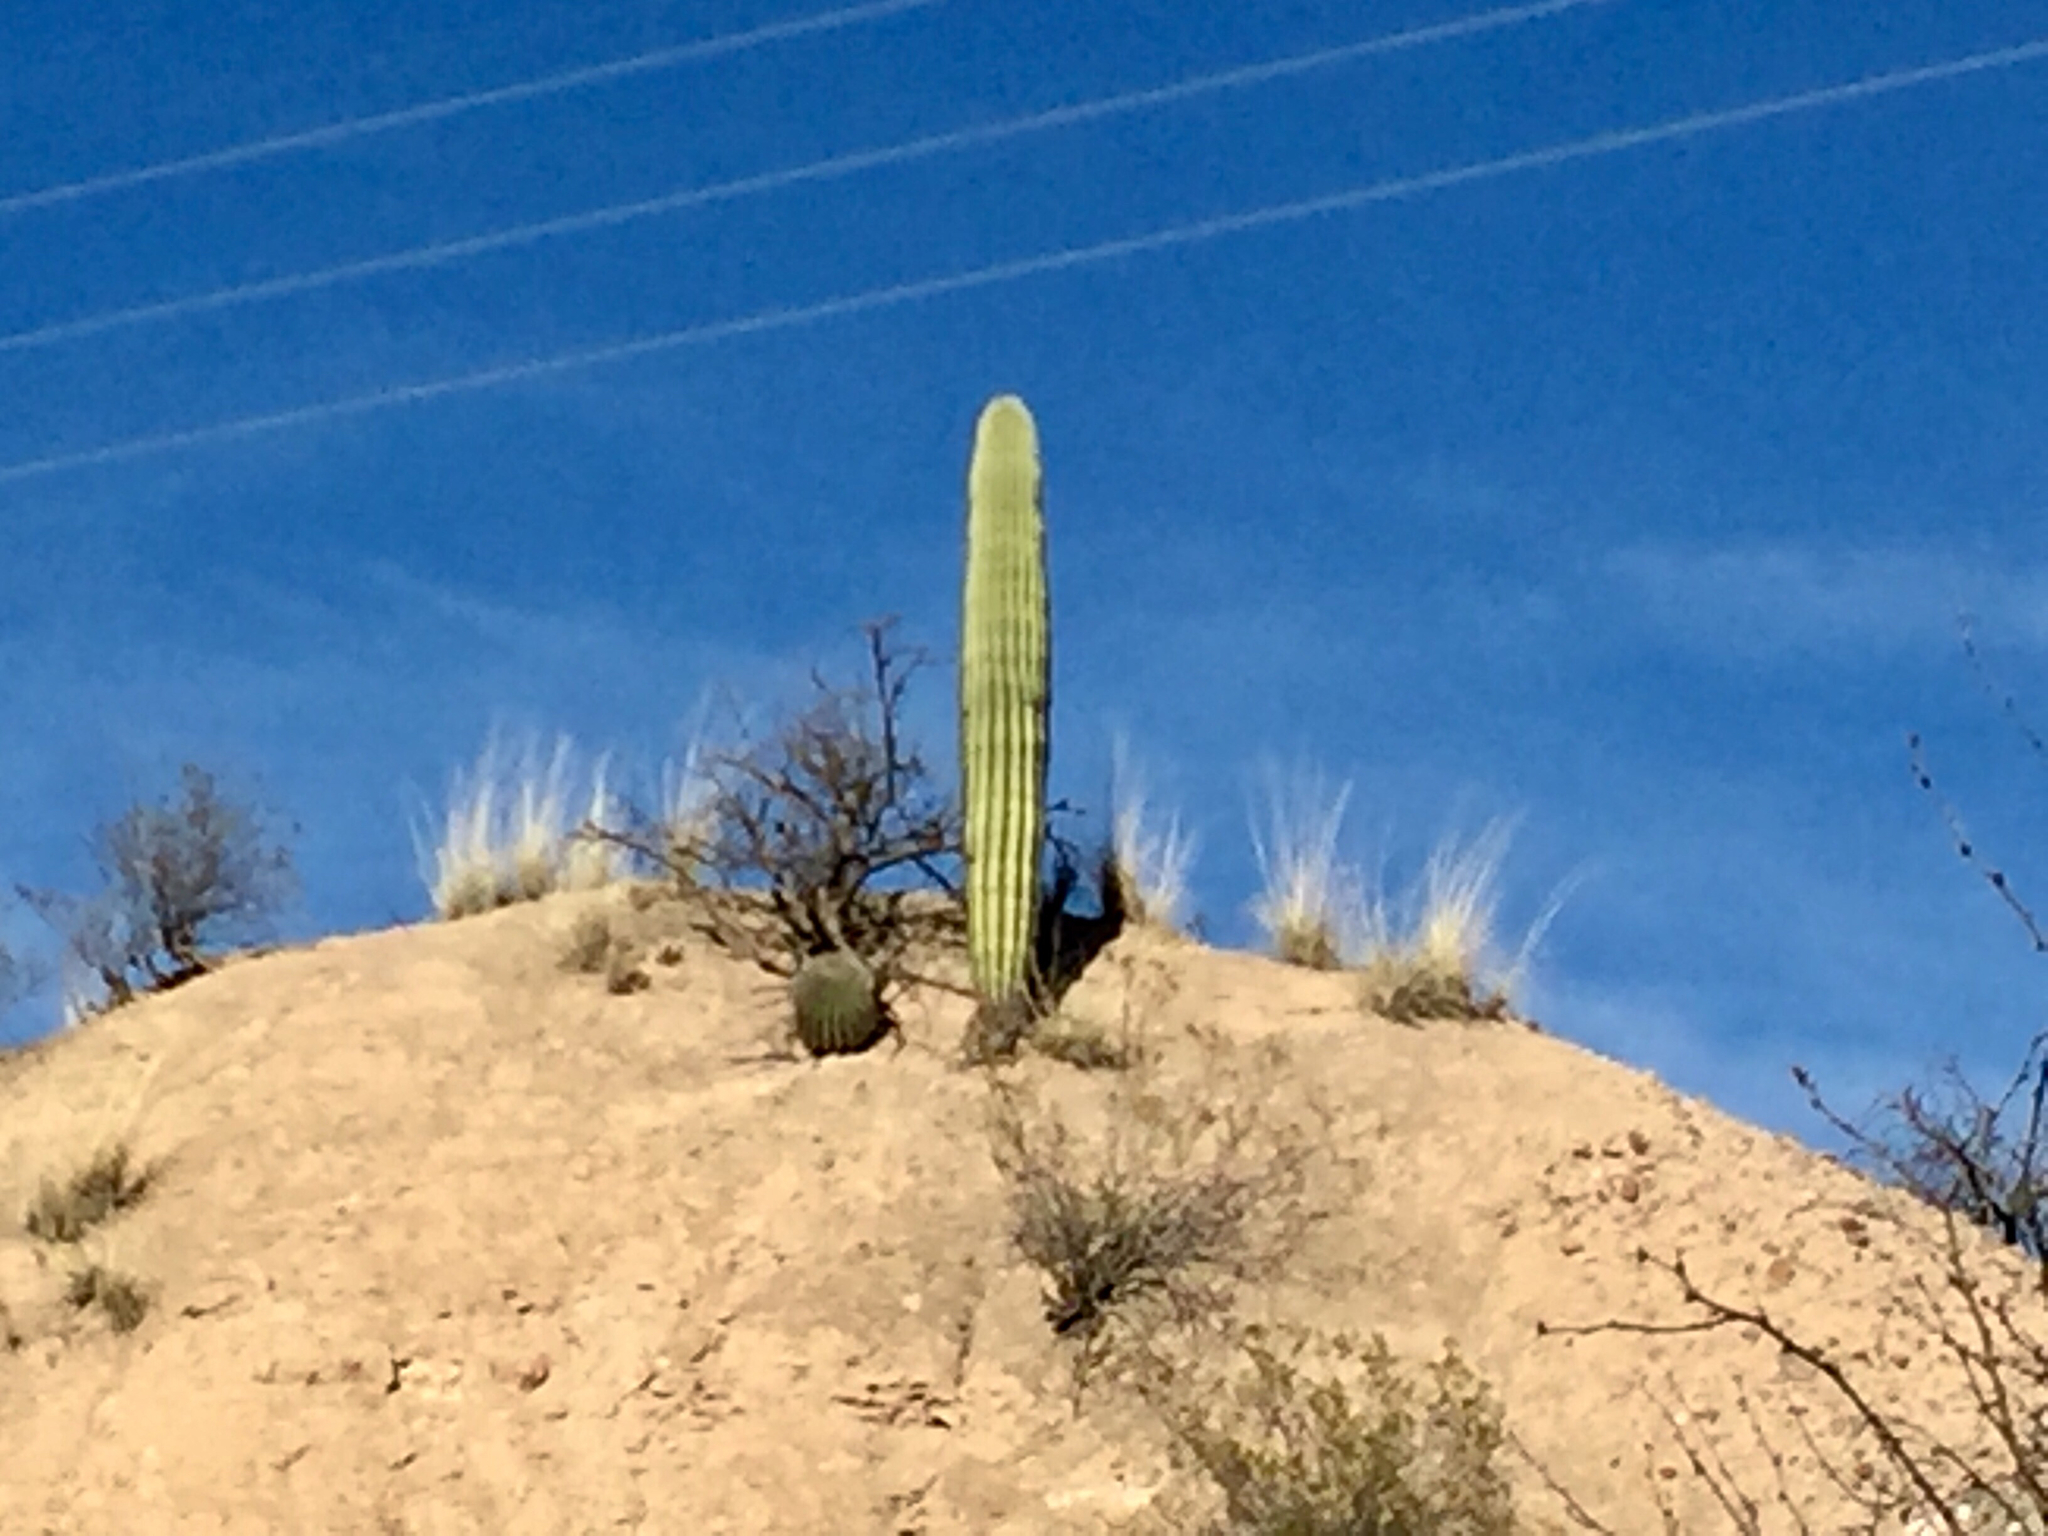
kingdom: Plantae
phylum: Tracheophyta
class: Magnoliopsida
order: Caryophyllales
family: Cactaceae
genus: Carnegiea
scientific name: Carnegiea gigantea
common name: Saguaro
